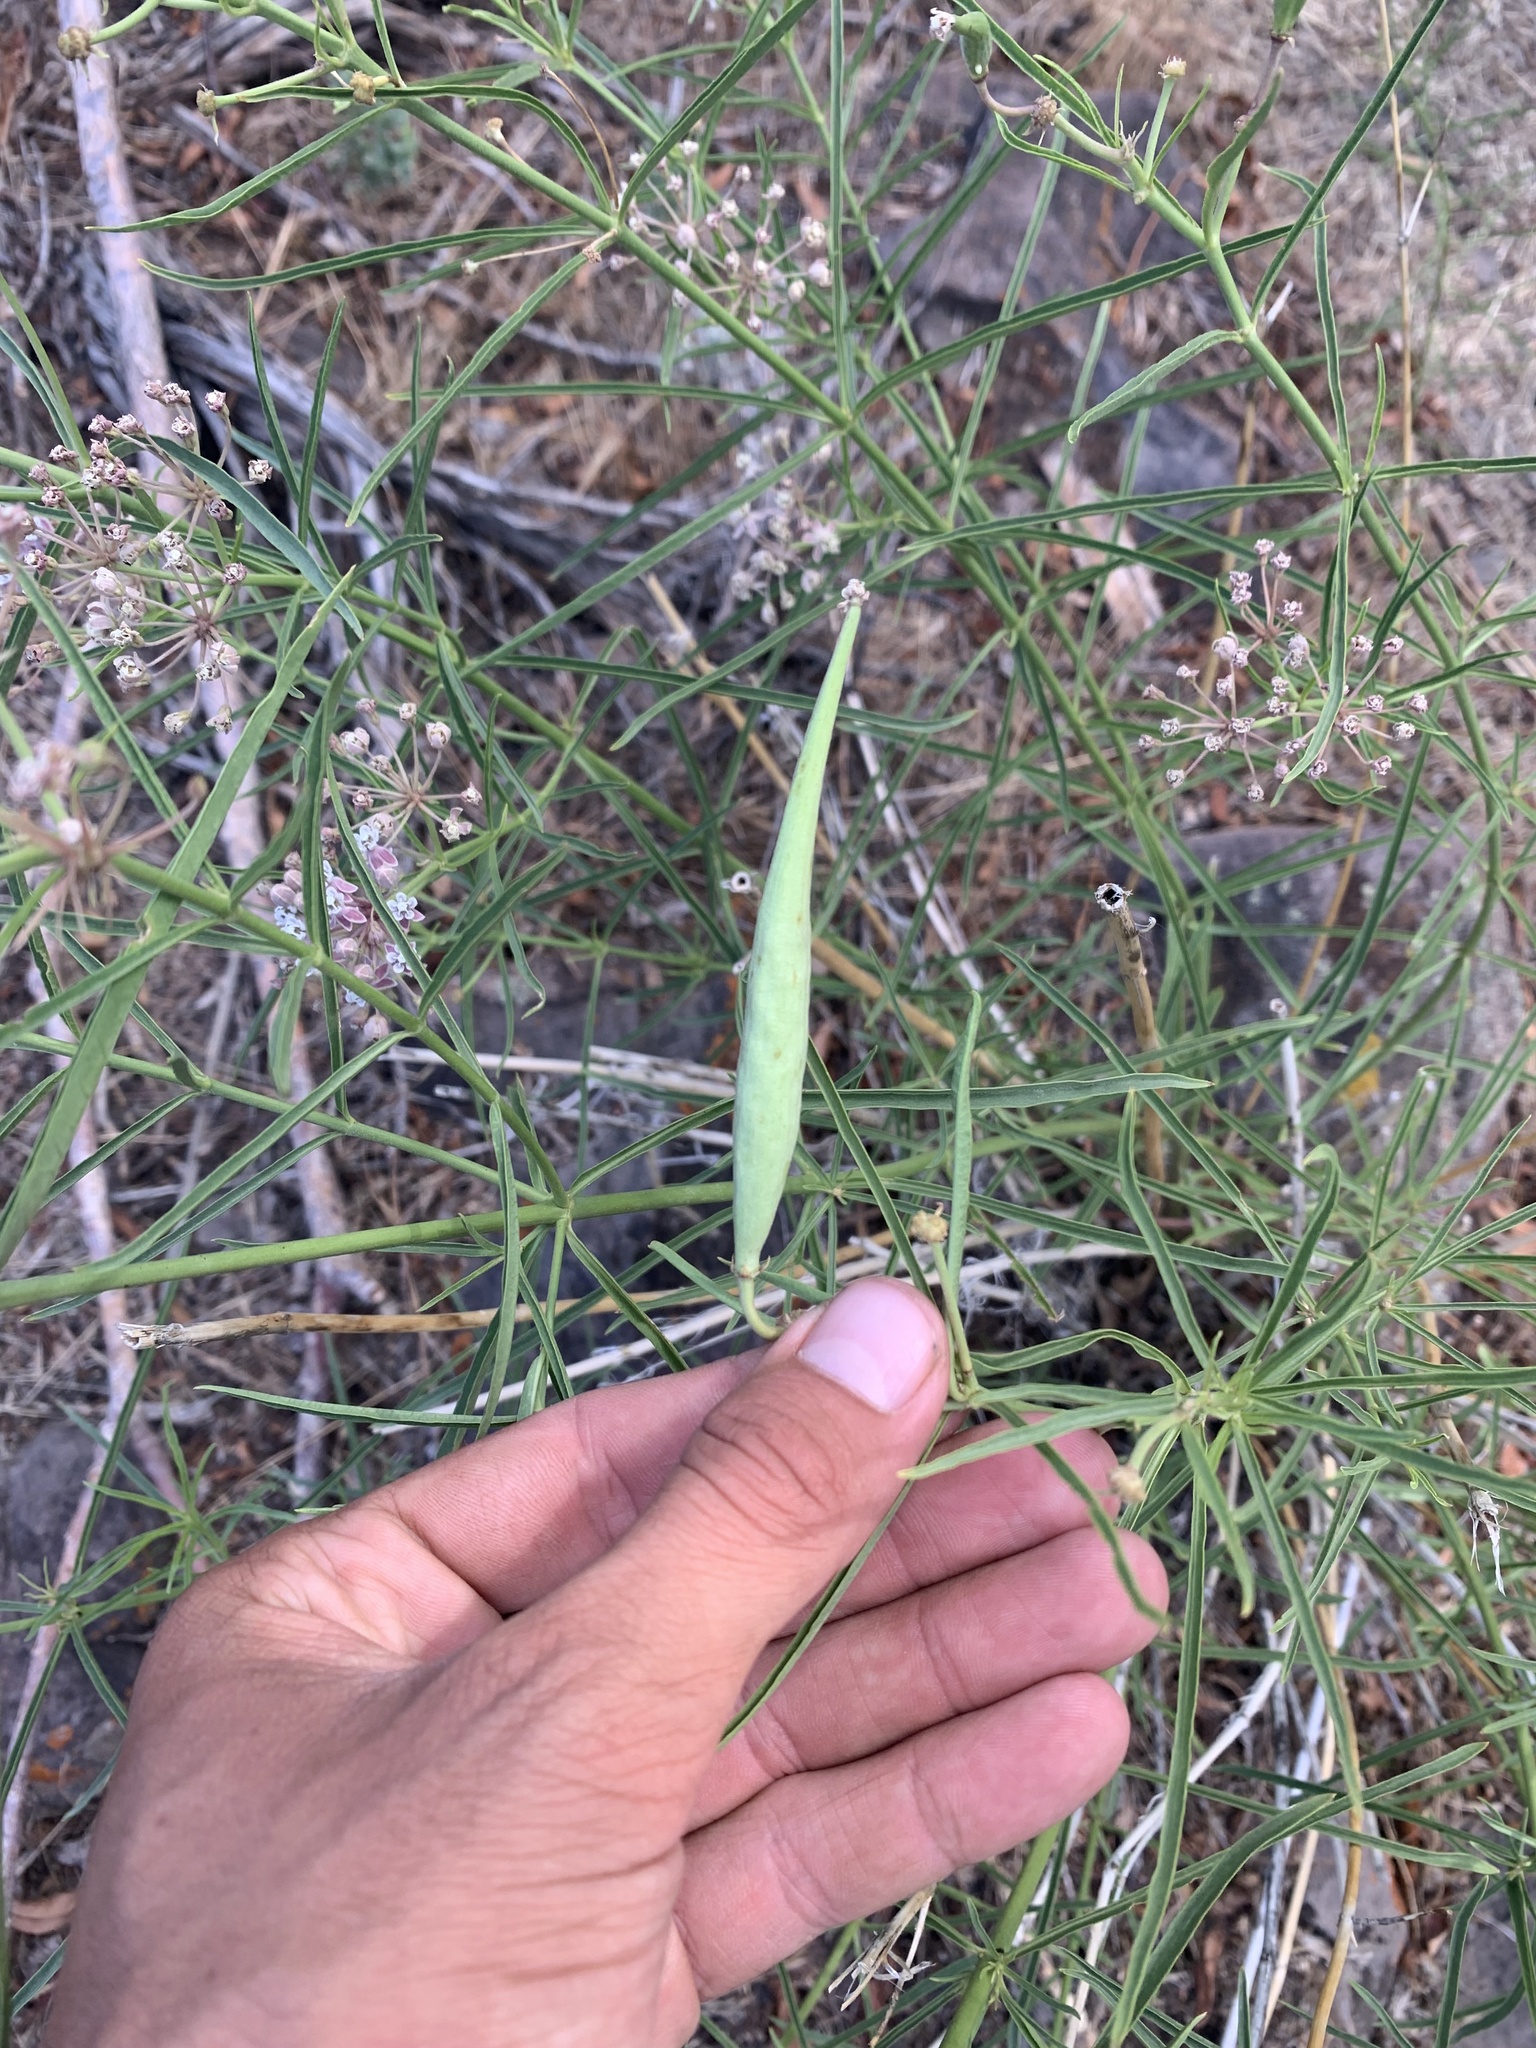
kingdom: Plantae
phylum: Tracheophyta
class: Magnoliopsida
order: Gentianales
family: Apocynaceae
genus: Asclepias
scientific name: Asclepias fascicularis
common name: Mexican milkweed
